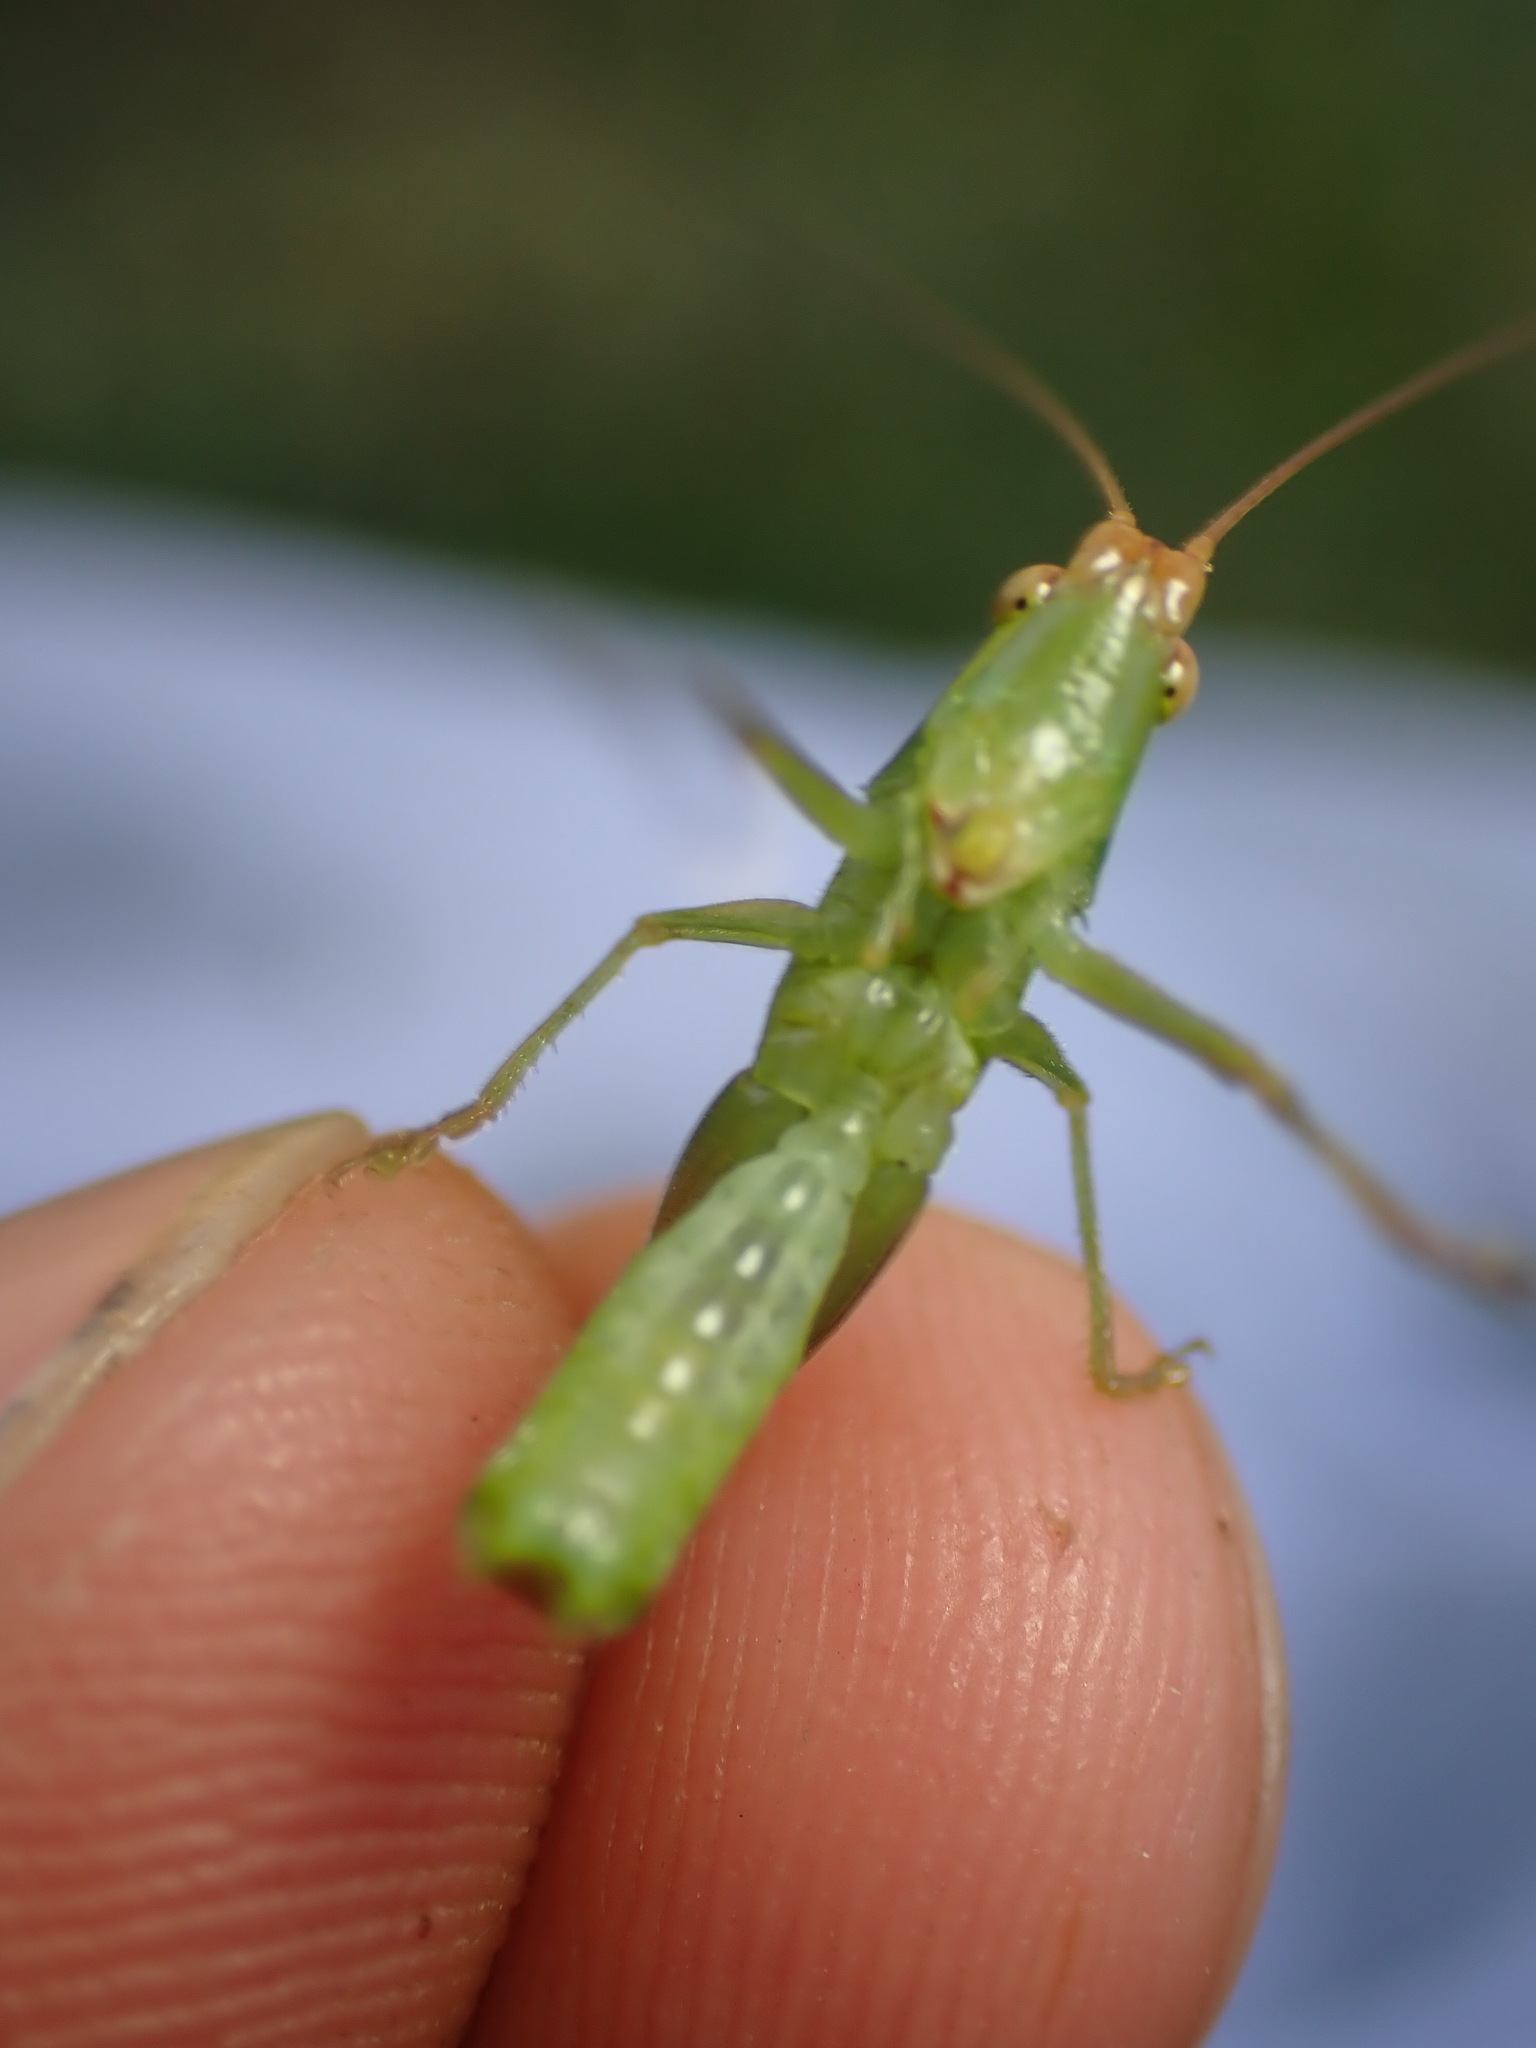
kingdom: Animalia
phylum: Arthropoda
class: Insecta
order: Orthoptera
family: Tettigoniidae
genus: Conocephalus
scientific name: Conocephalus conocephalus
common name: African meadow katydid
